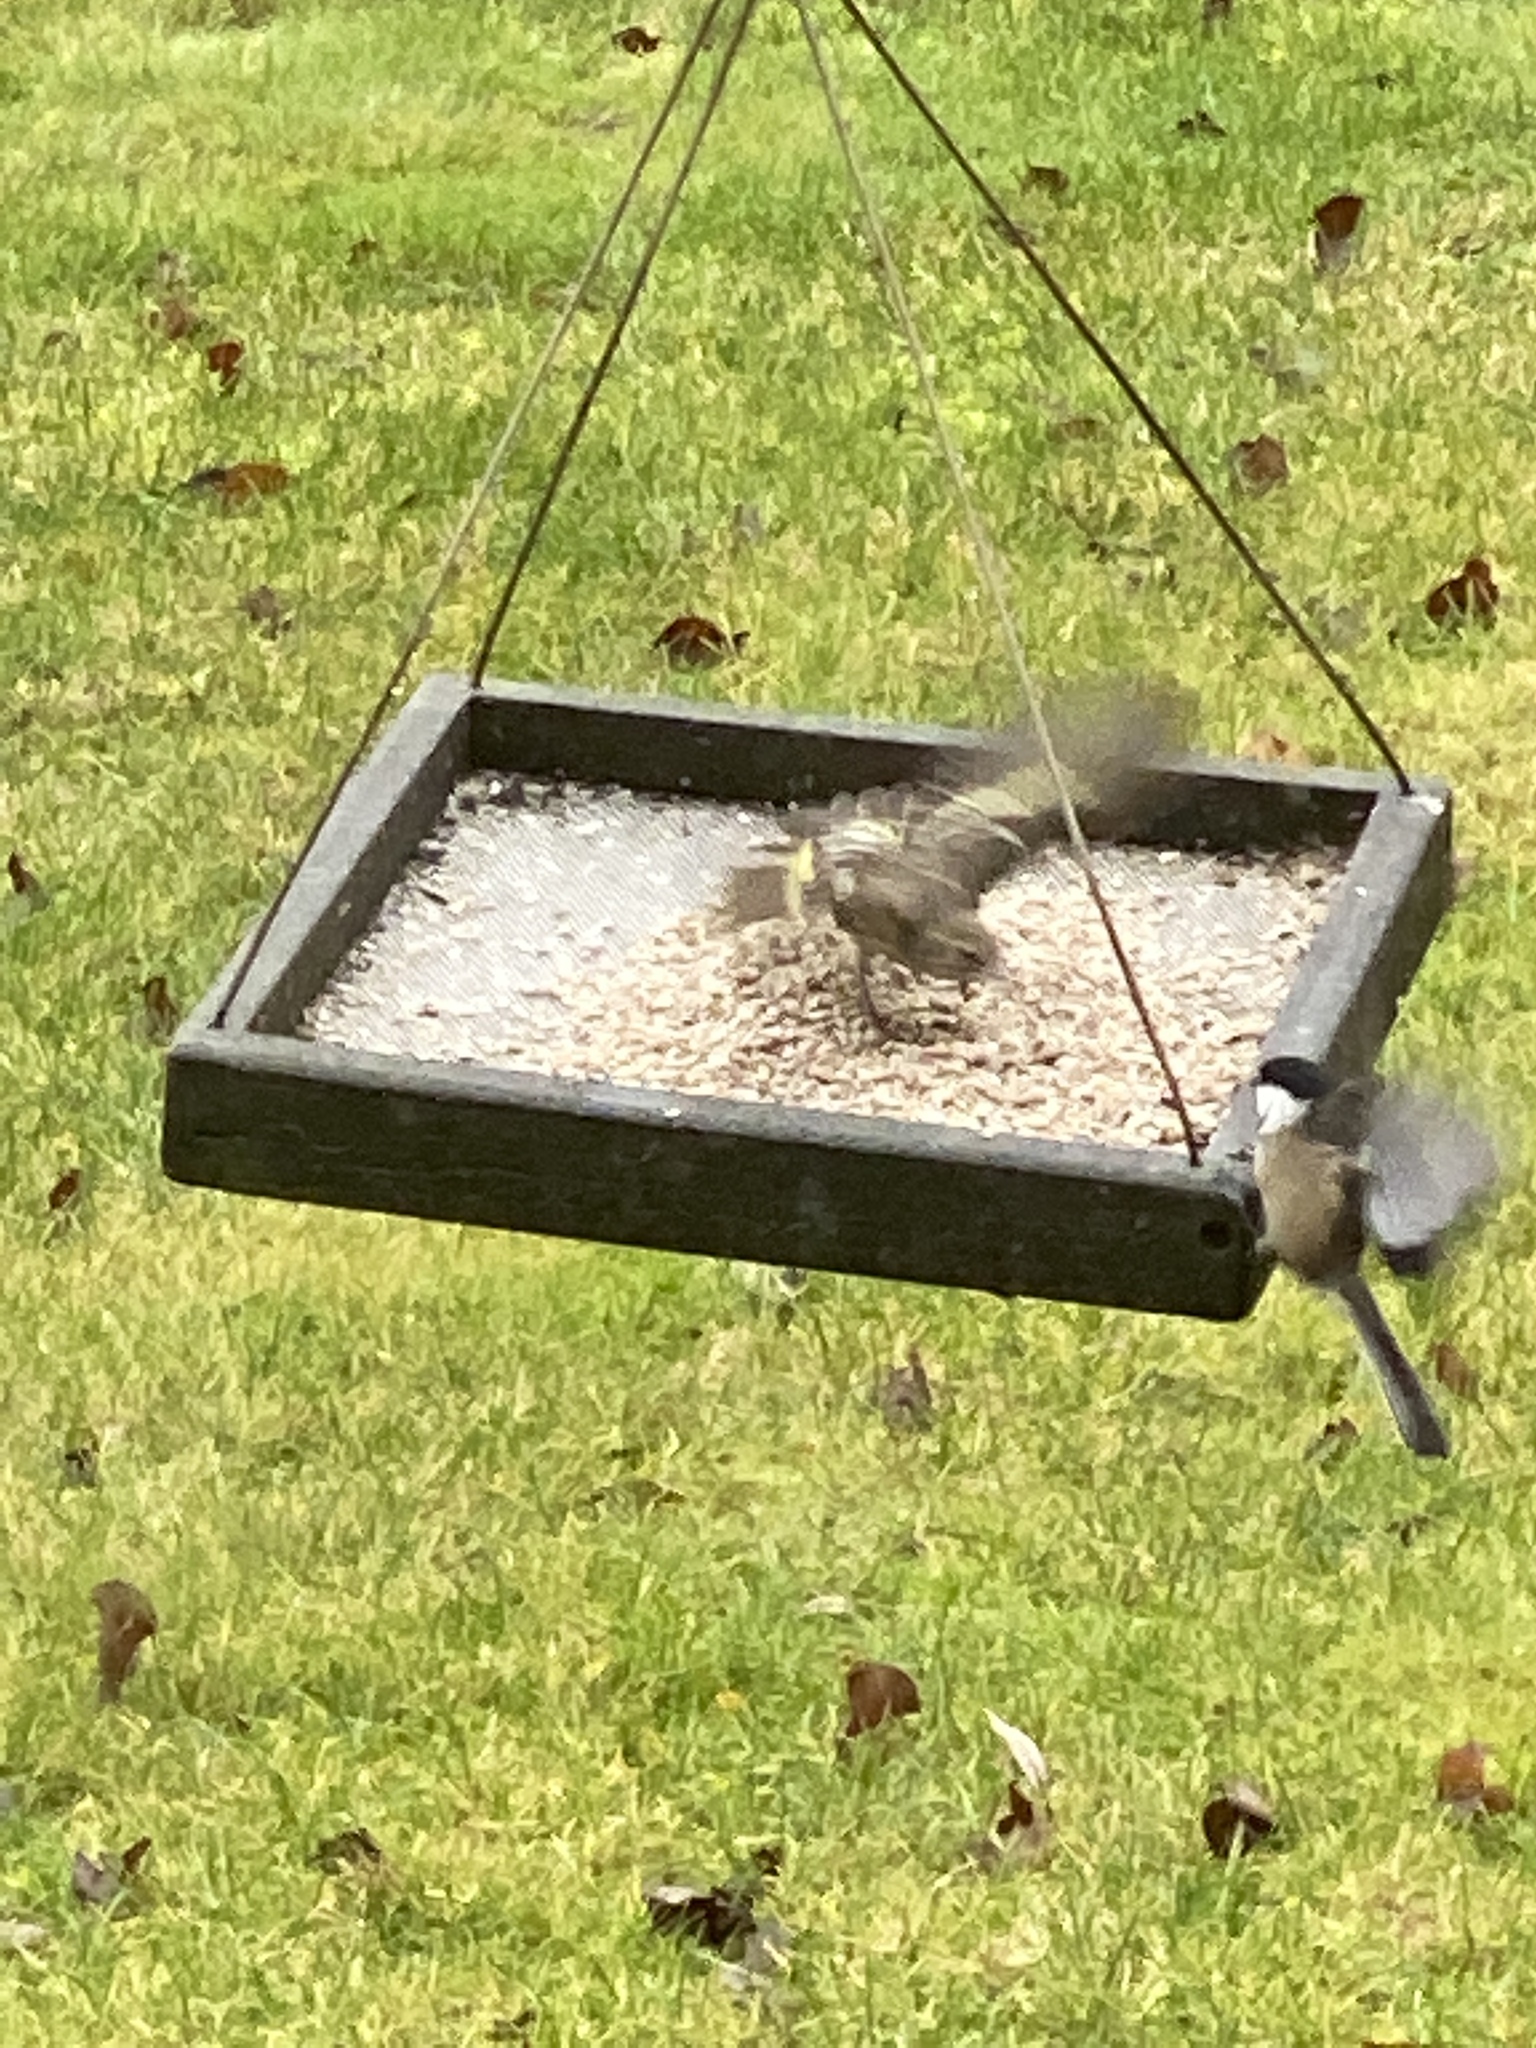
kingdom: Animalia
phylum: Chordata
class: Aves
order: Passeriformes
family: Paridae
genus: Poecile
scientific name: Poecile atricapillus
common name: Black-capped chickadee
